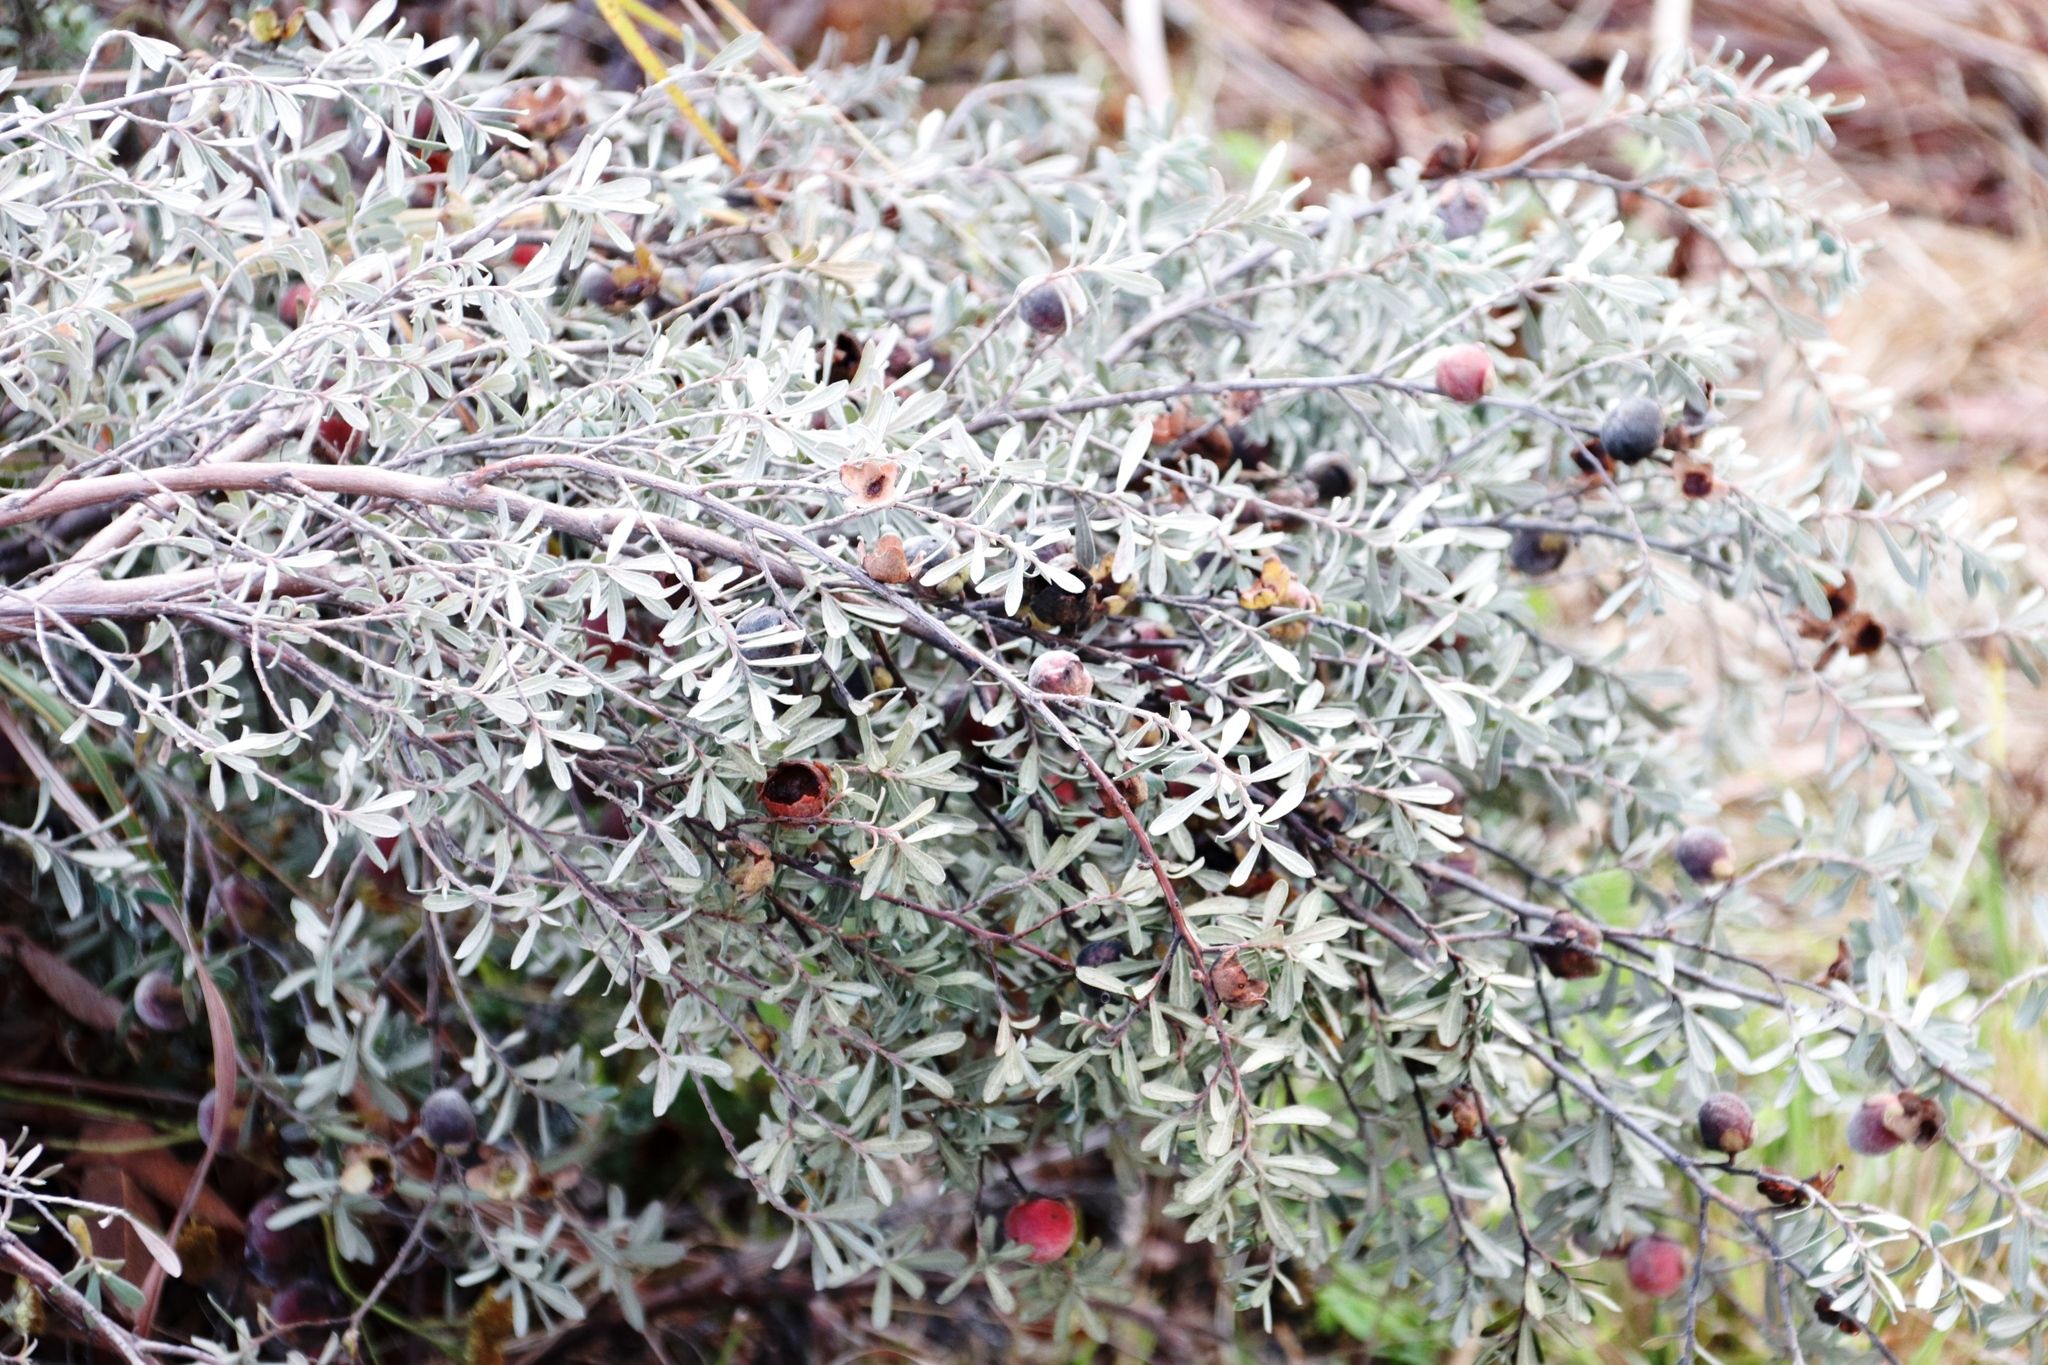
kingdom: Plantae
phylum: Tracheophyta
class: Magnoliopsida
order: Ericales
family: Ebenaceae
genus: Diospyros
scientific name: Diospyros pubescens
